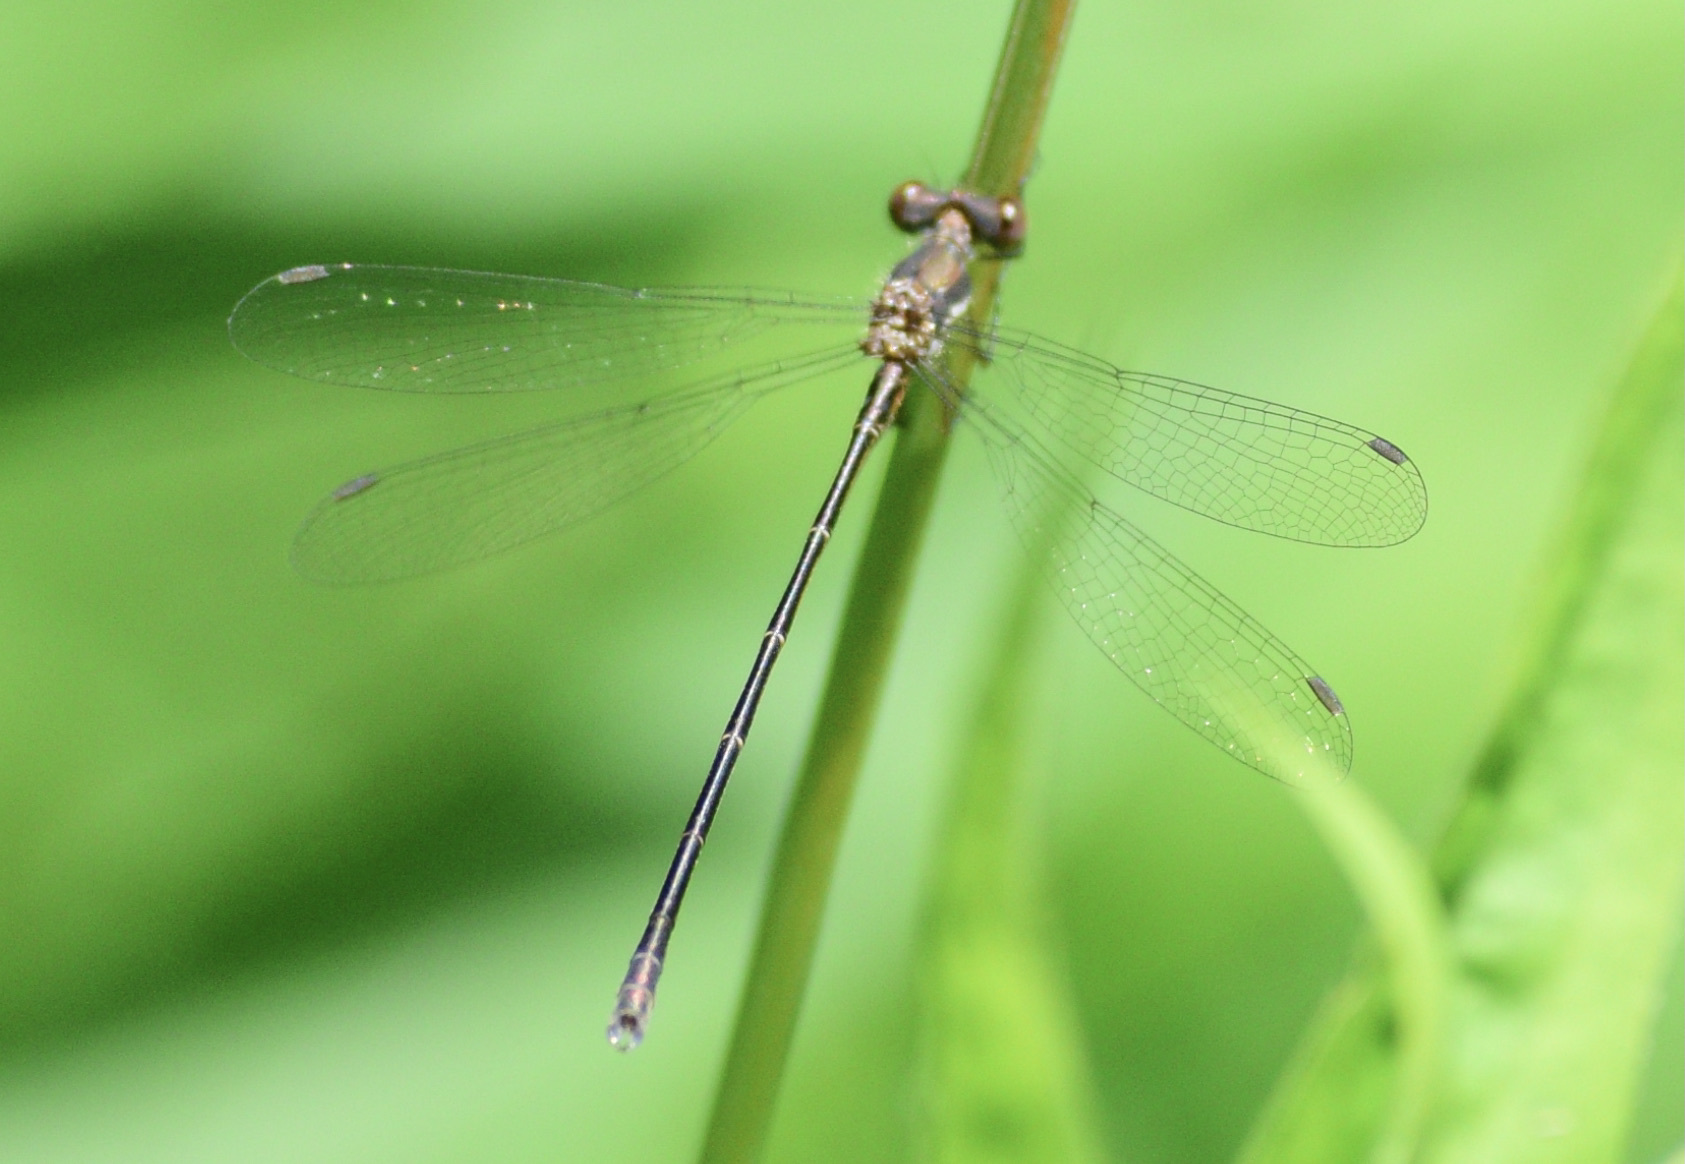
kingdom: Animalia
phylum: Arthropoda
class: Insecta
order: Odonata
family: Lestidae
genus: Lestes
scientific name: Lestes congener
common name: Spotted spreadwing
